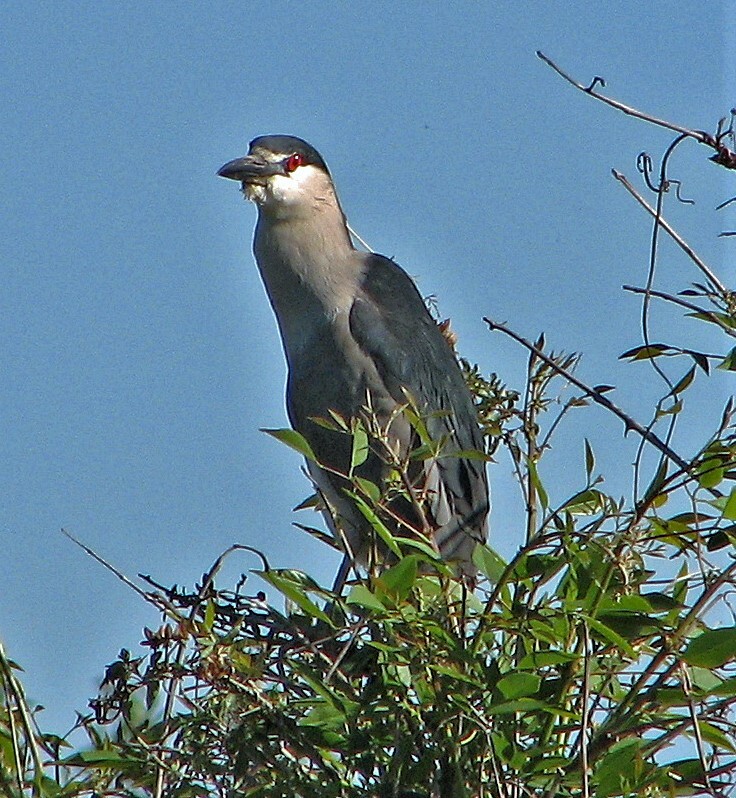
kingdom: Animalia
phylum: Chordata
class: Aves
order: Pelecaniformes
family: Ardeidae
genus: Nycticorax
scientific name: Nycticorax nycticorax
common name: Black-crowned night heron
